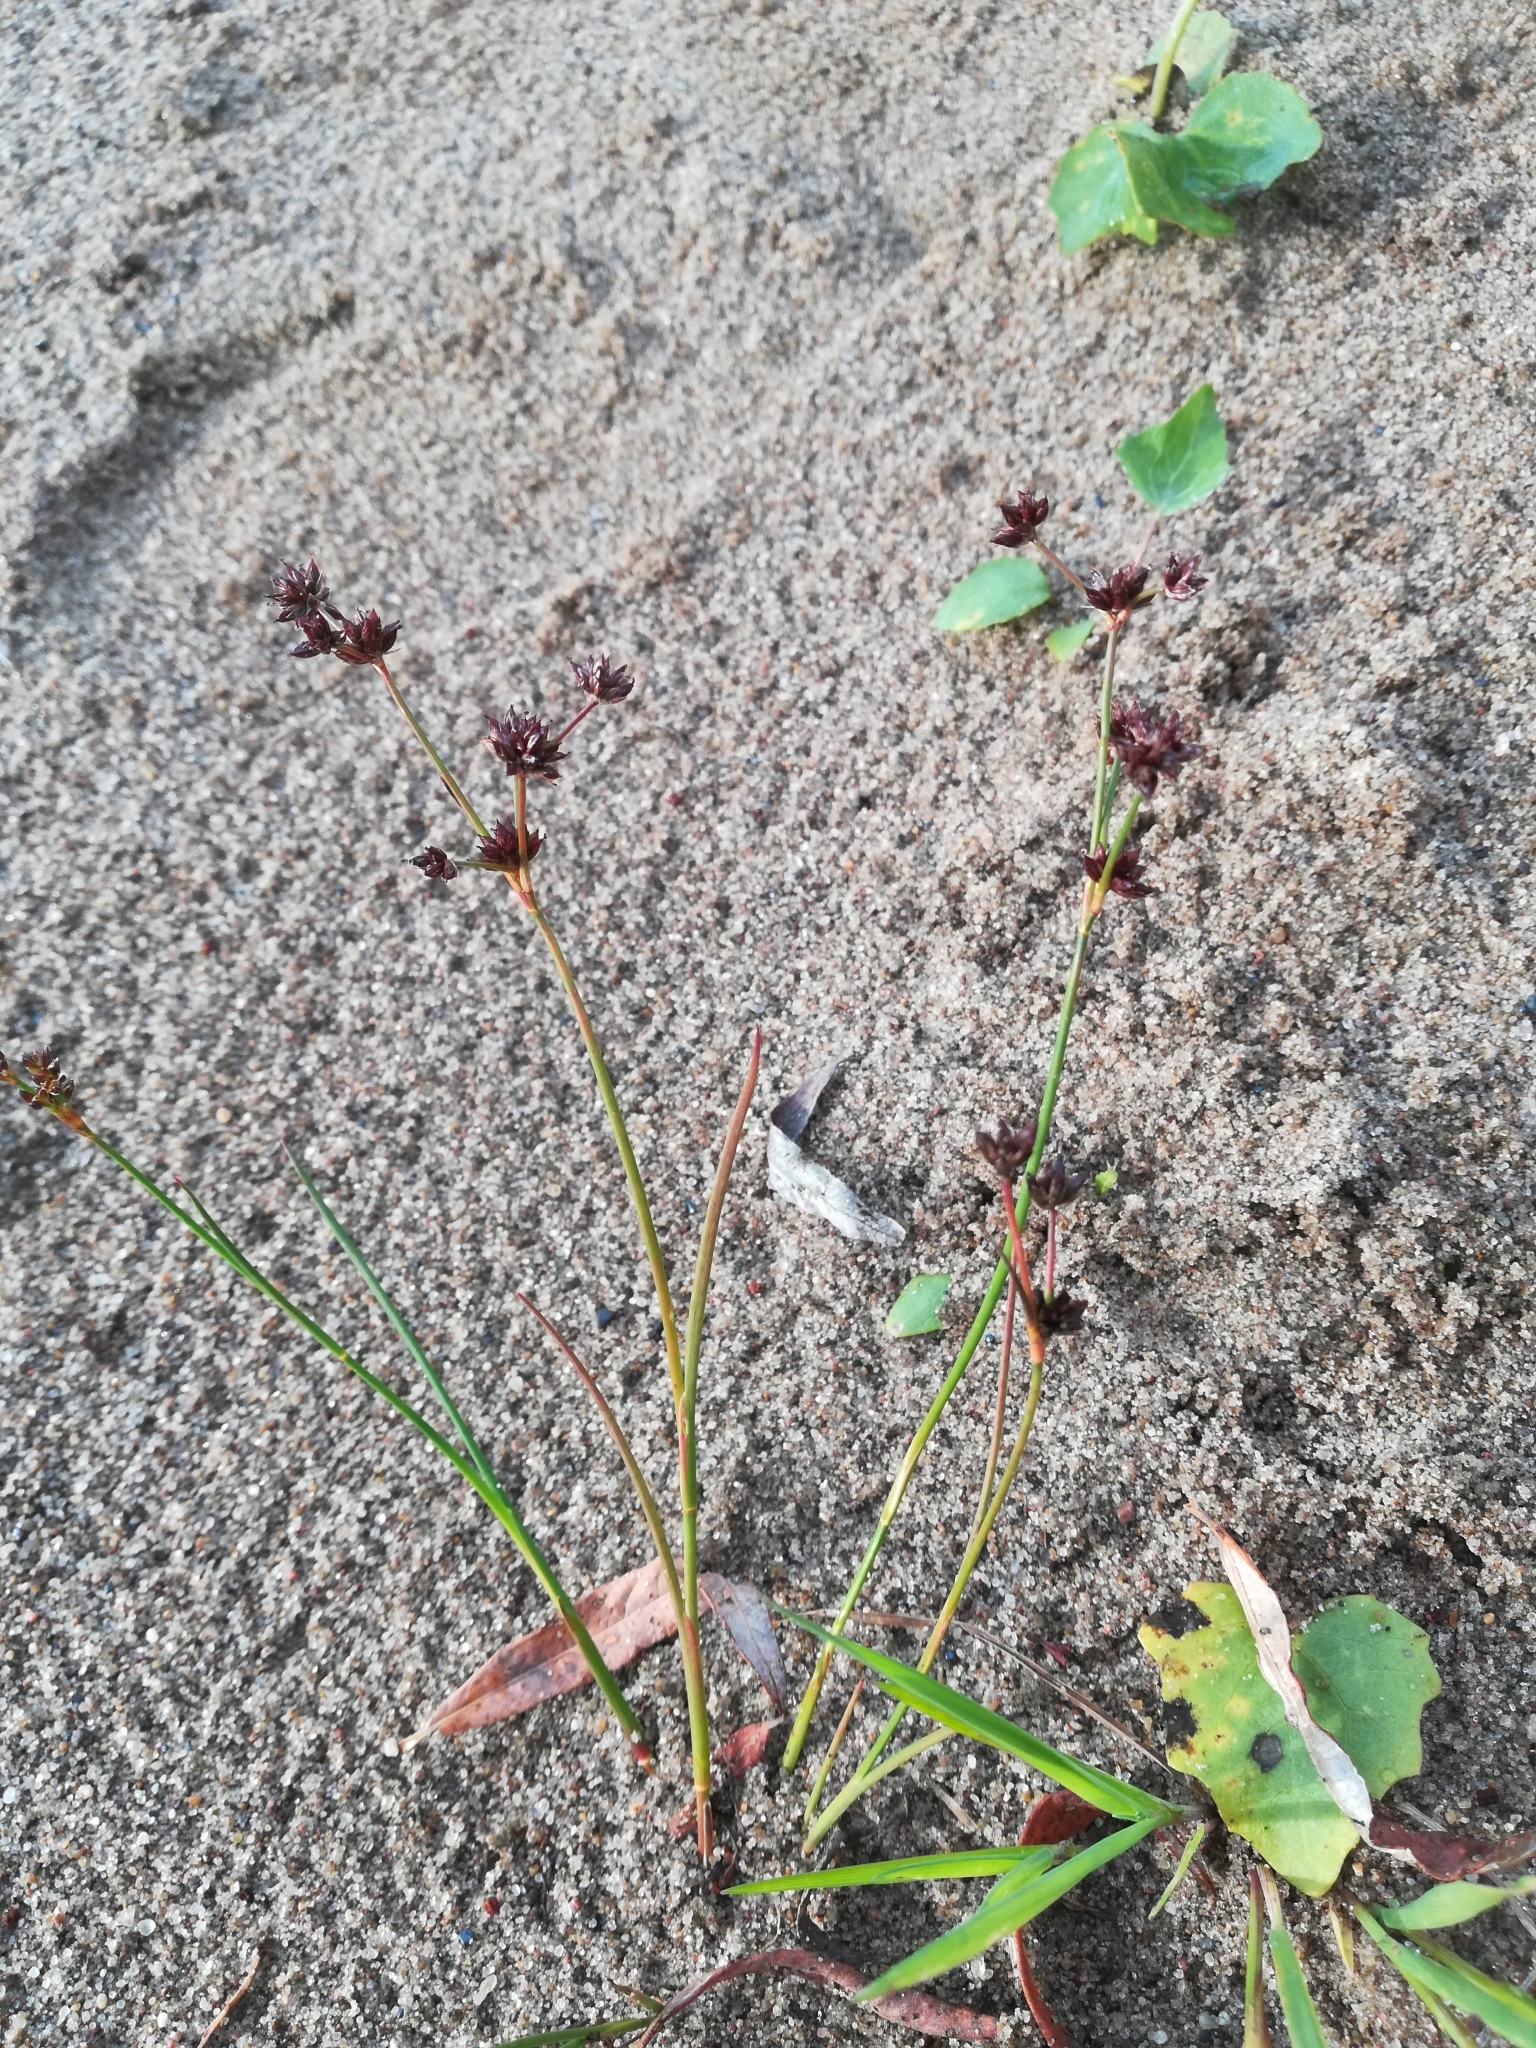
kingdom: Plantae
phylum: Tracheophyta
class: Liliopsida
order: Poales
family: Juncaceae
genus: Juncus
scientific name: Juncus articulatus
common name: Jointed rush
